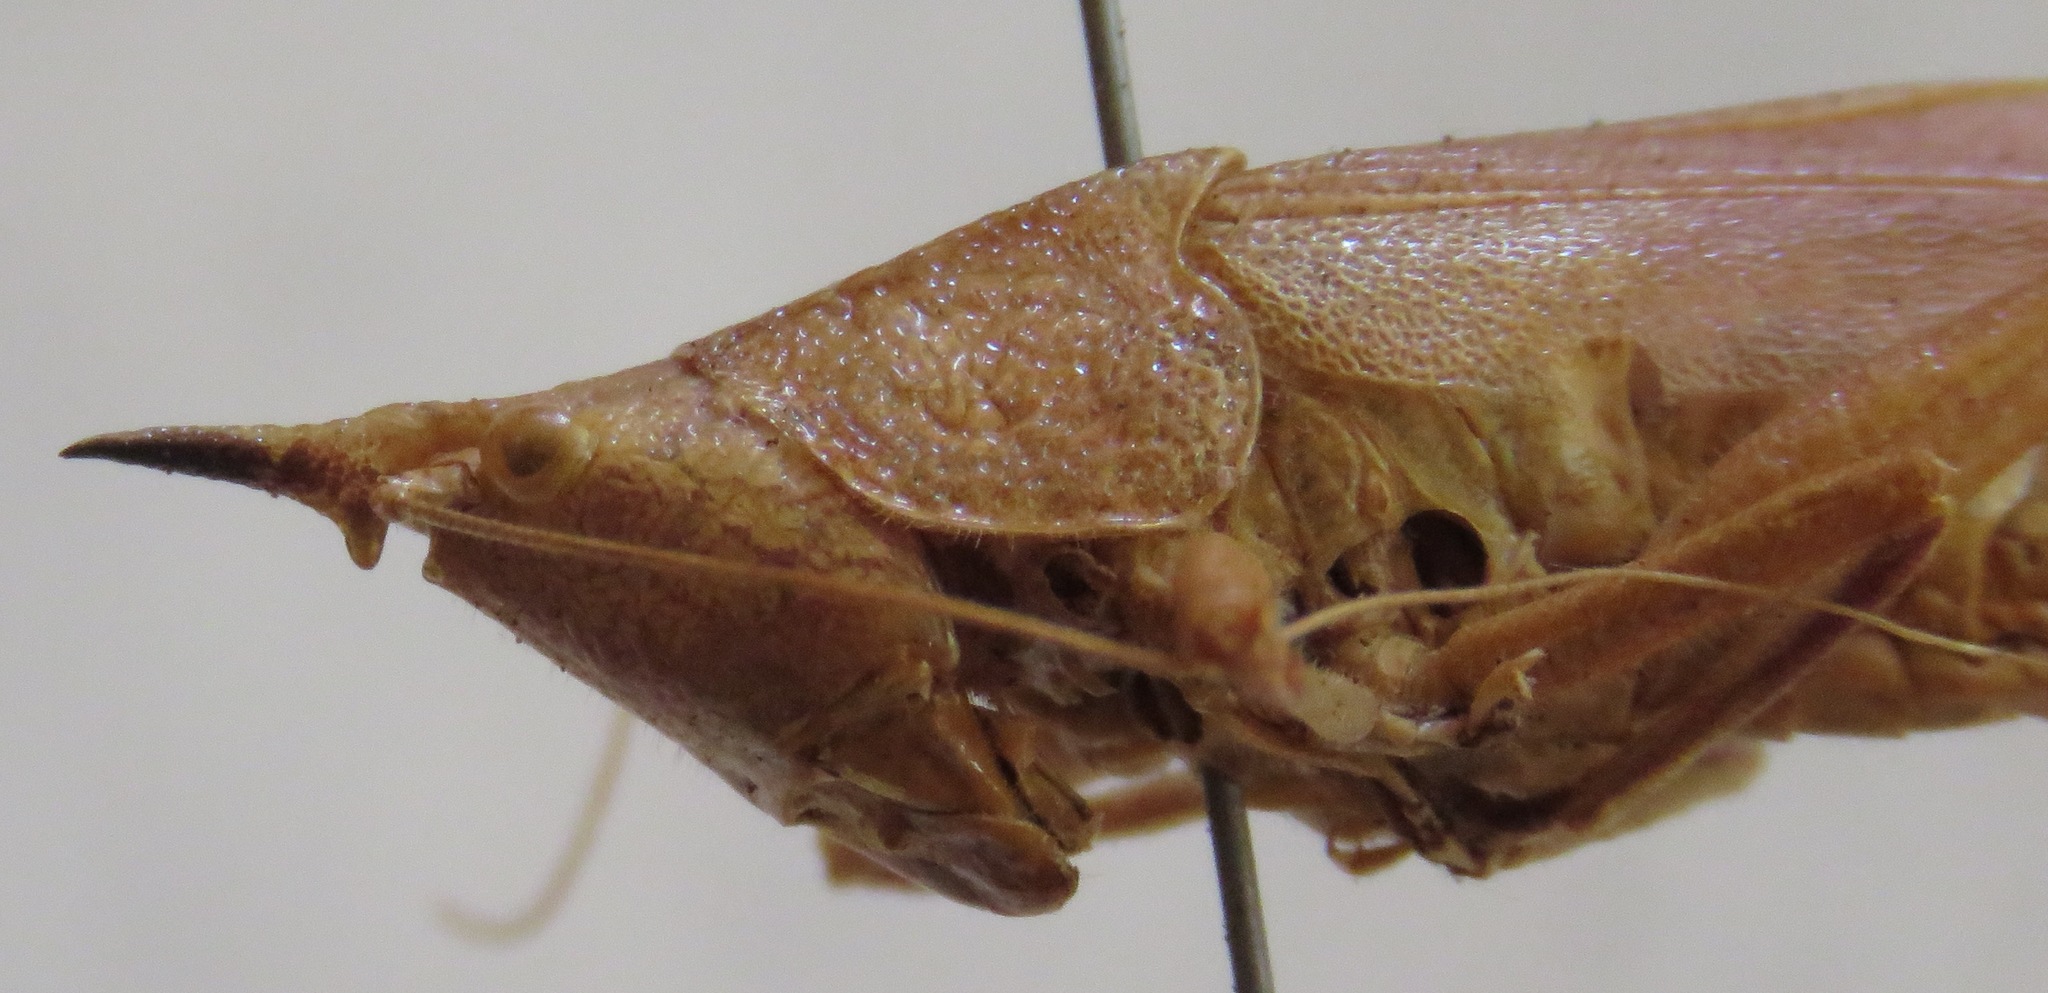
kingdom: Animalia
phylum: Arthropoda
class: Insecta
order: Orthoptera
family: Tettigoniidae
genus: Pyrgocorypha
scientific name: Pyrgocorypha rogersi
